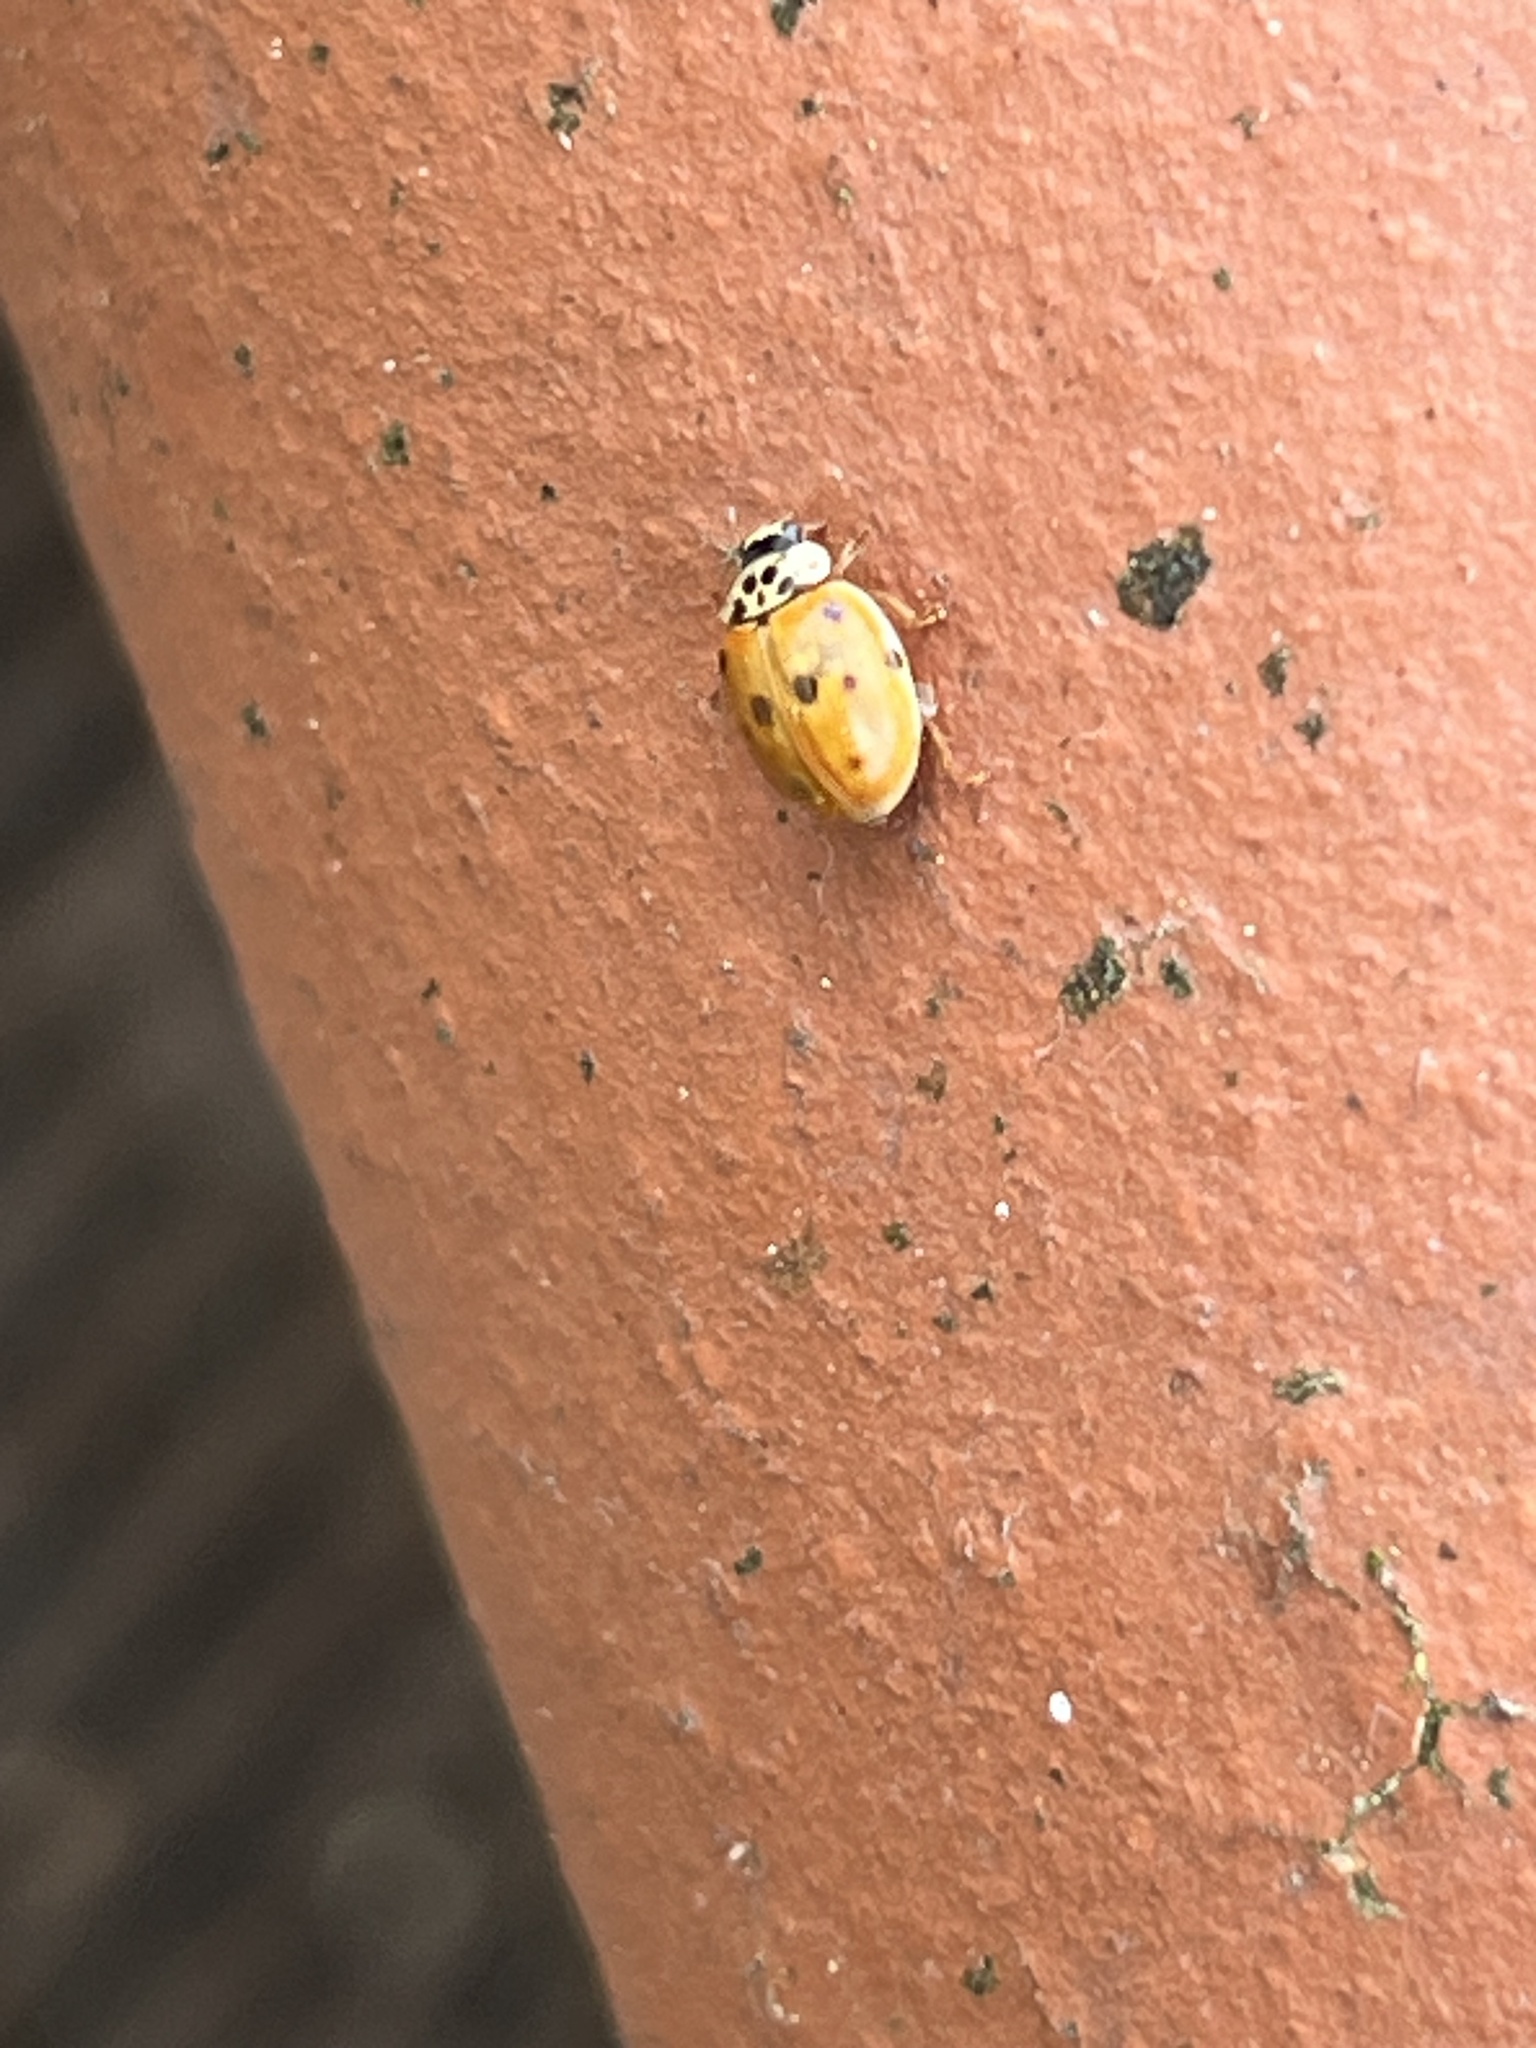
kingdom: Animalia
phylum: Arthropoda
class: Insecta
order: Coleoptera
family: Coccinellidae
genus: Adalia
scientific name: Adalia decempunctata
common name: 10-spot ladybird
